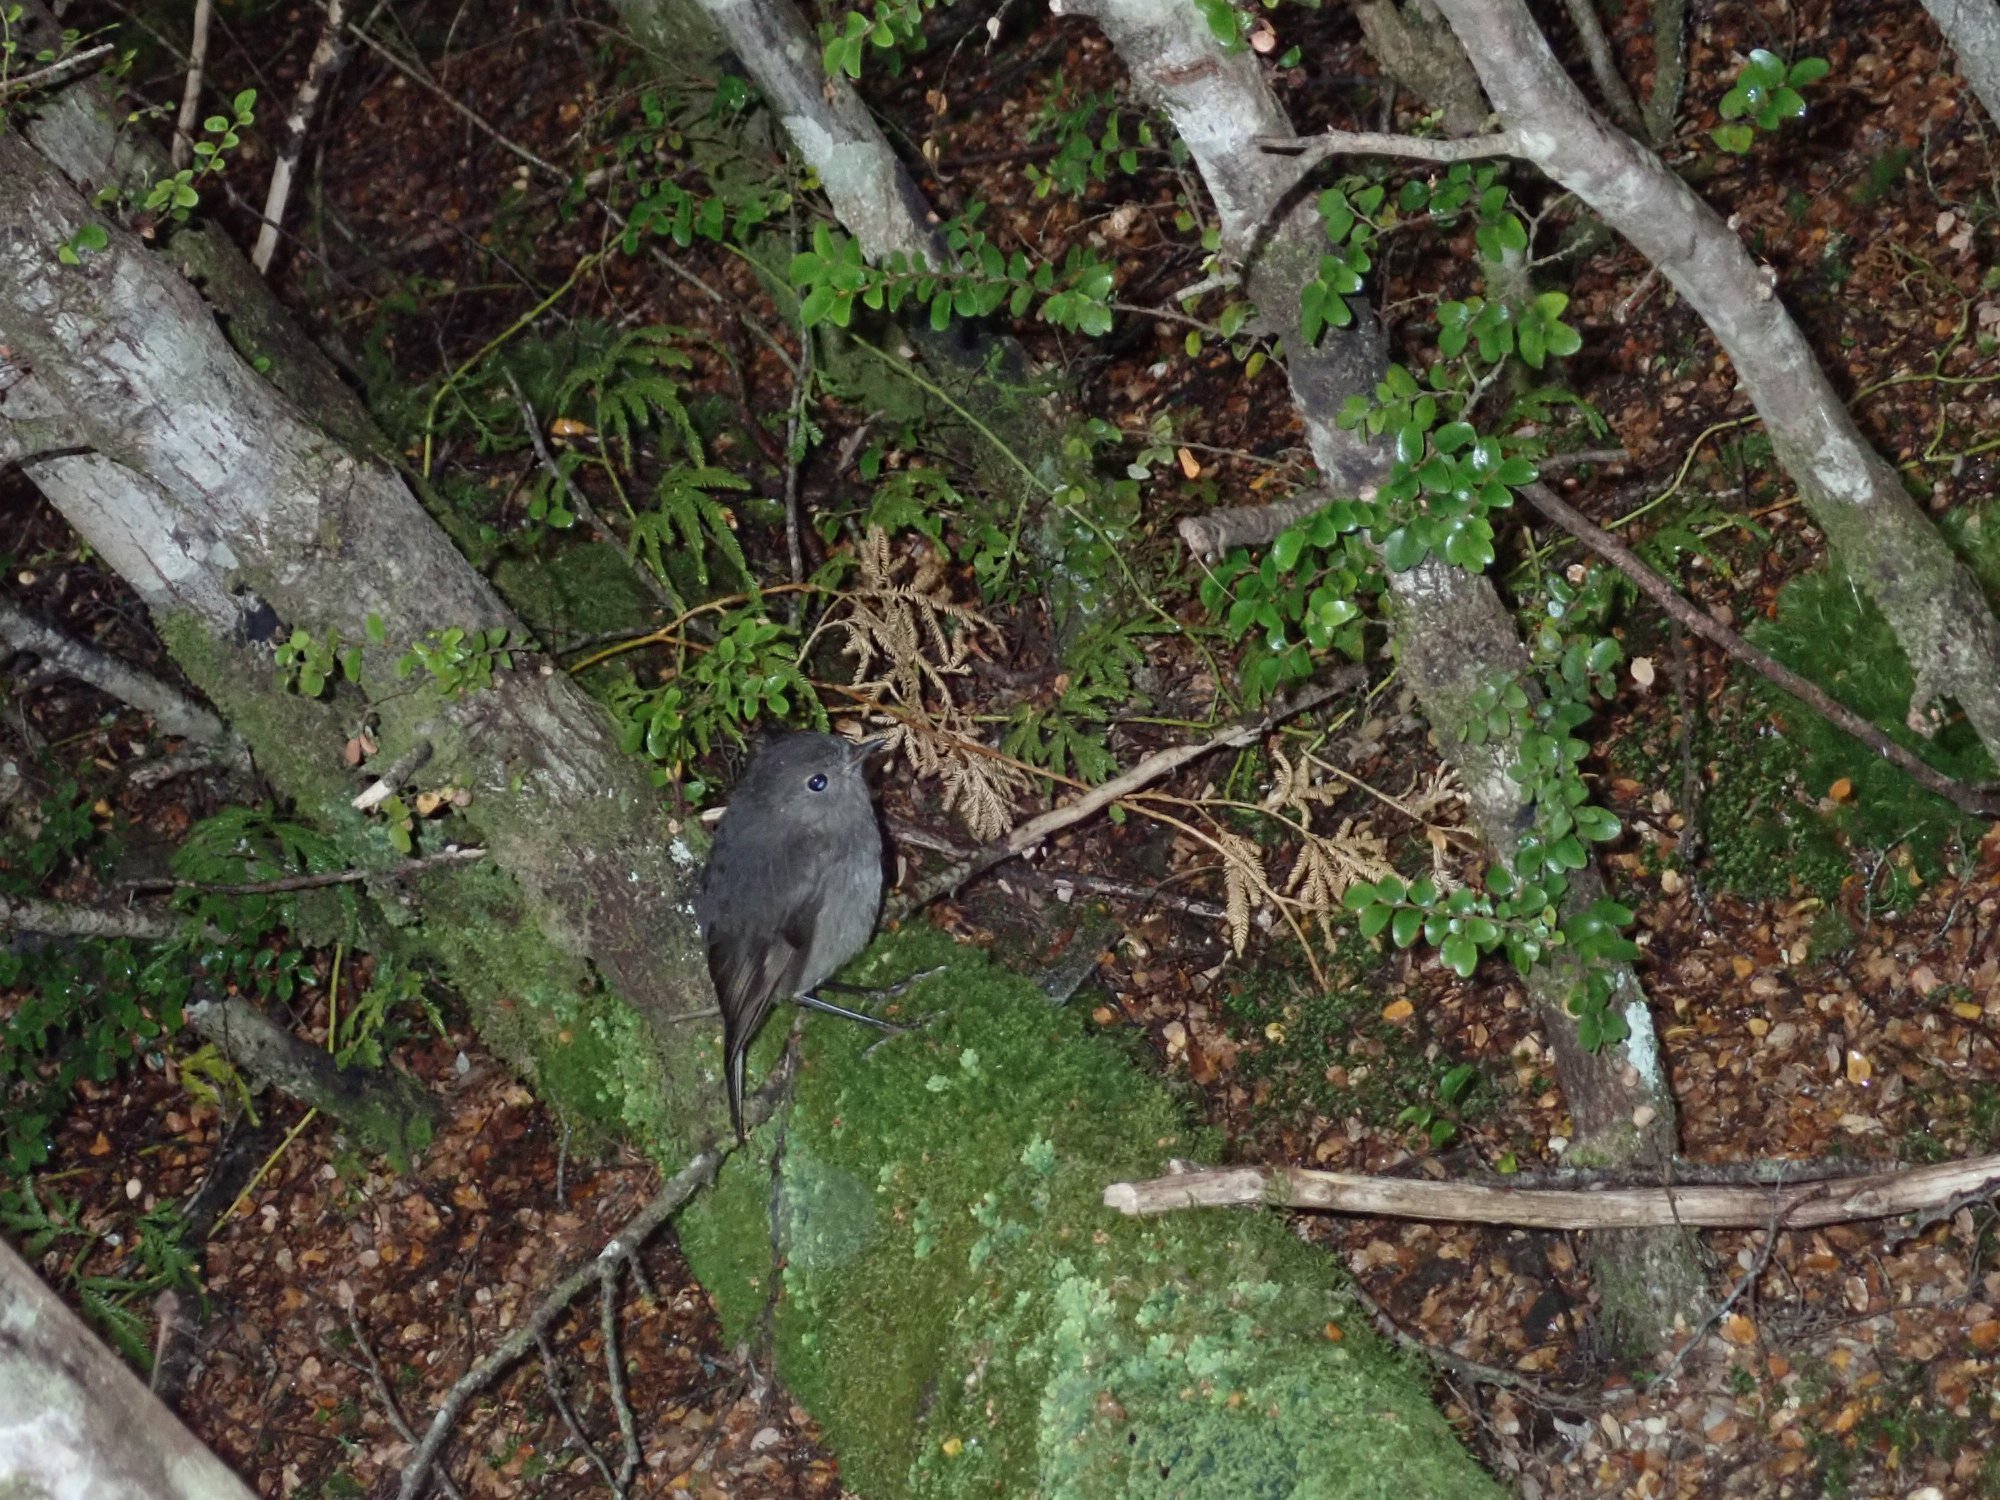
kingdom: Animalia
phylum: Chordata
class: Aves
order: Passeriformes
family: Petroicidae
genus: Petroica
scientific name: Petroica australis
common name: New zealand robin
